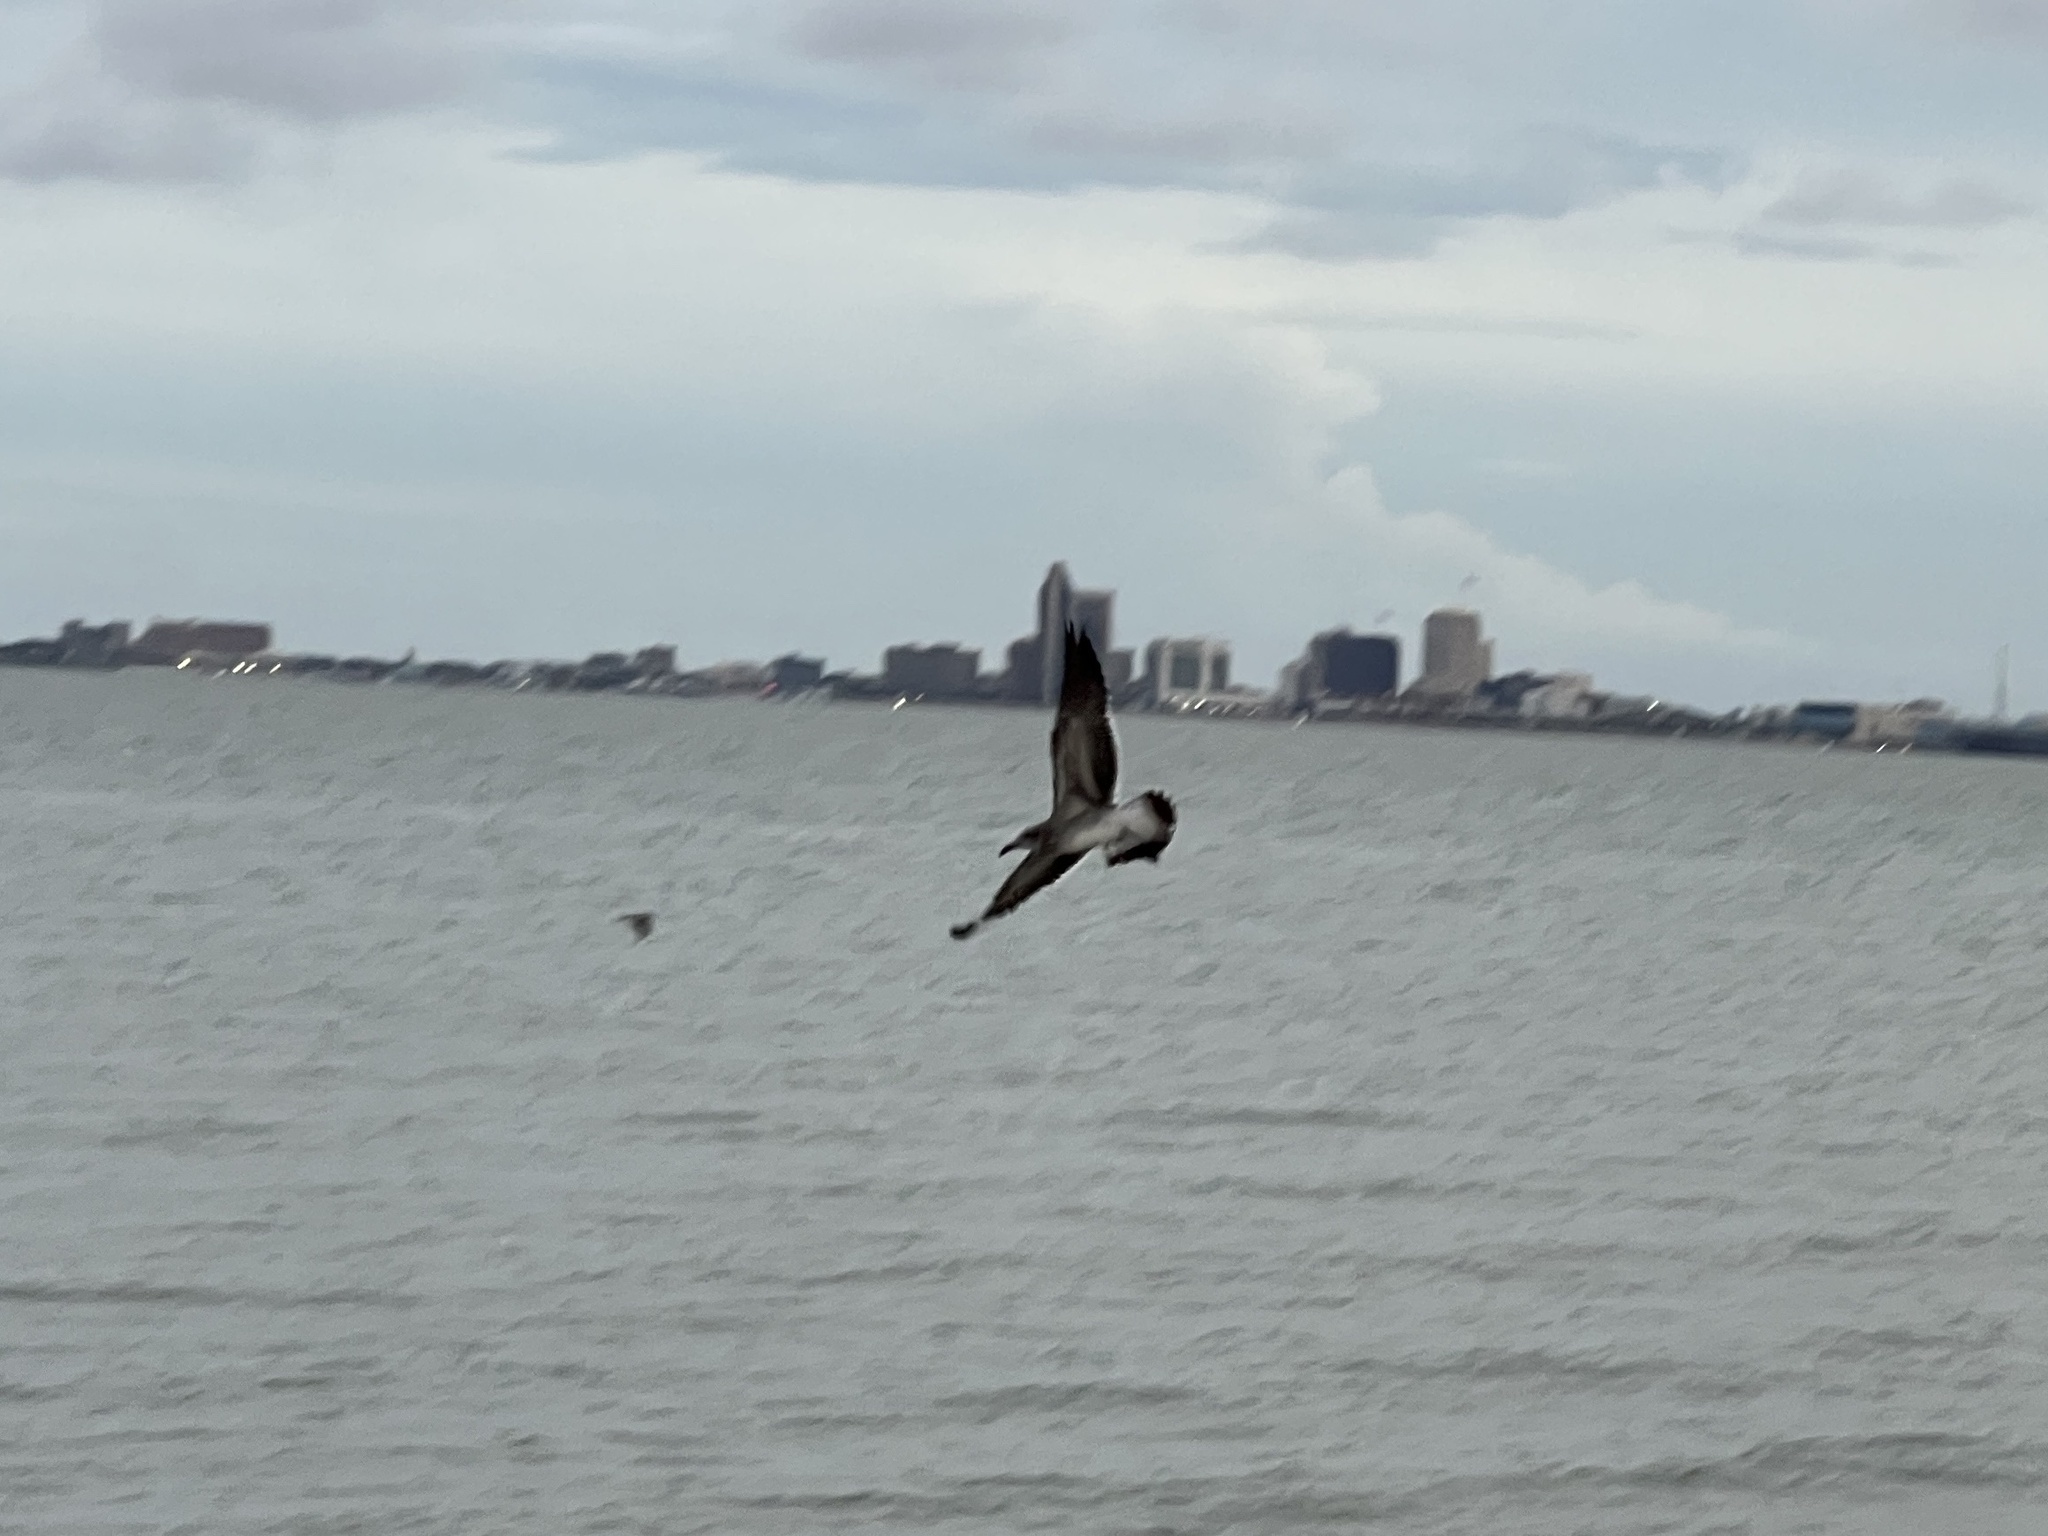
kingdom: Animalia
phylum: Chordata
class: Aves
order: Charadriiformes
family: Laridae
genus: Leucophaeus
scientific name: Leucophaeus atricilla
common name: Laughing gull
